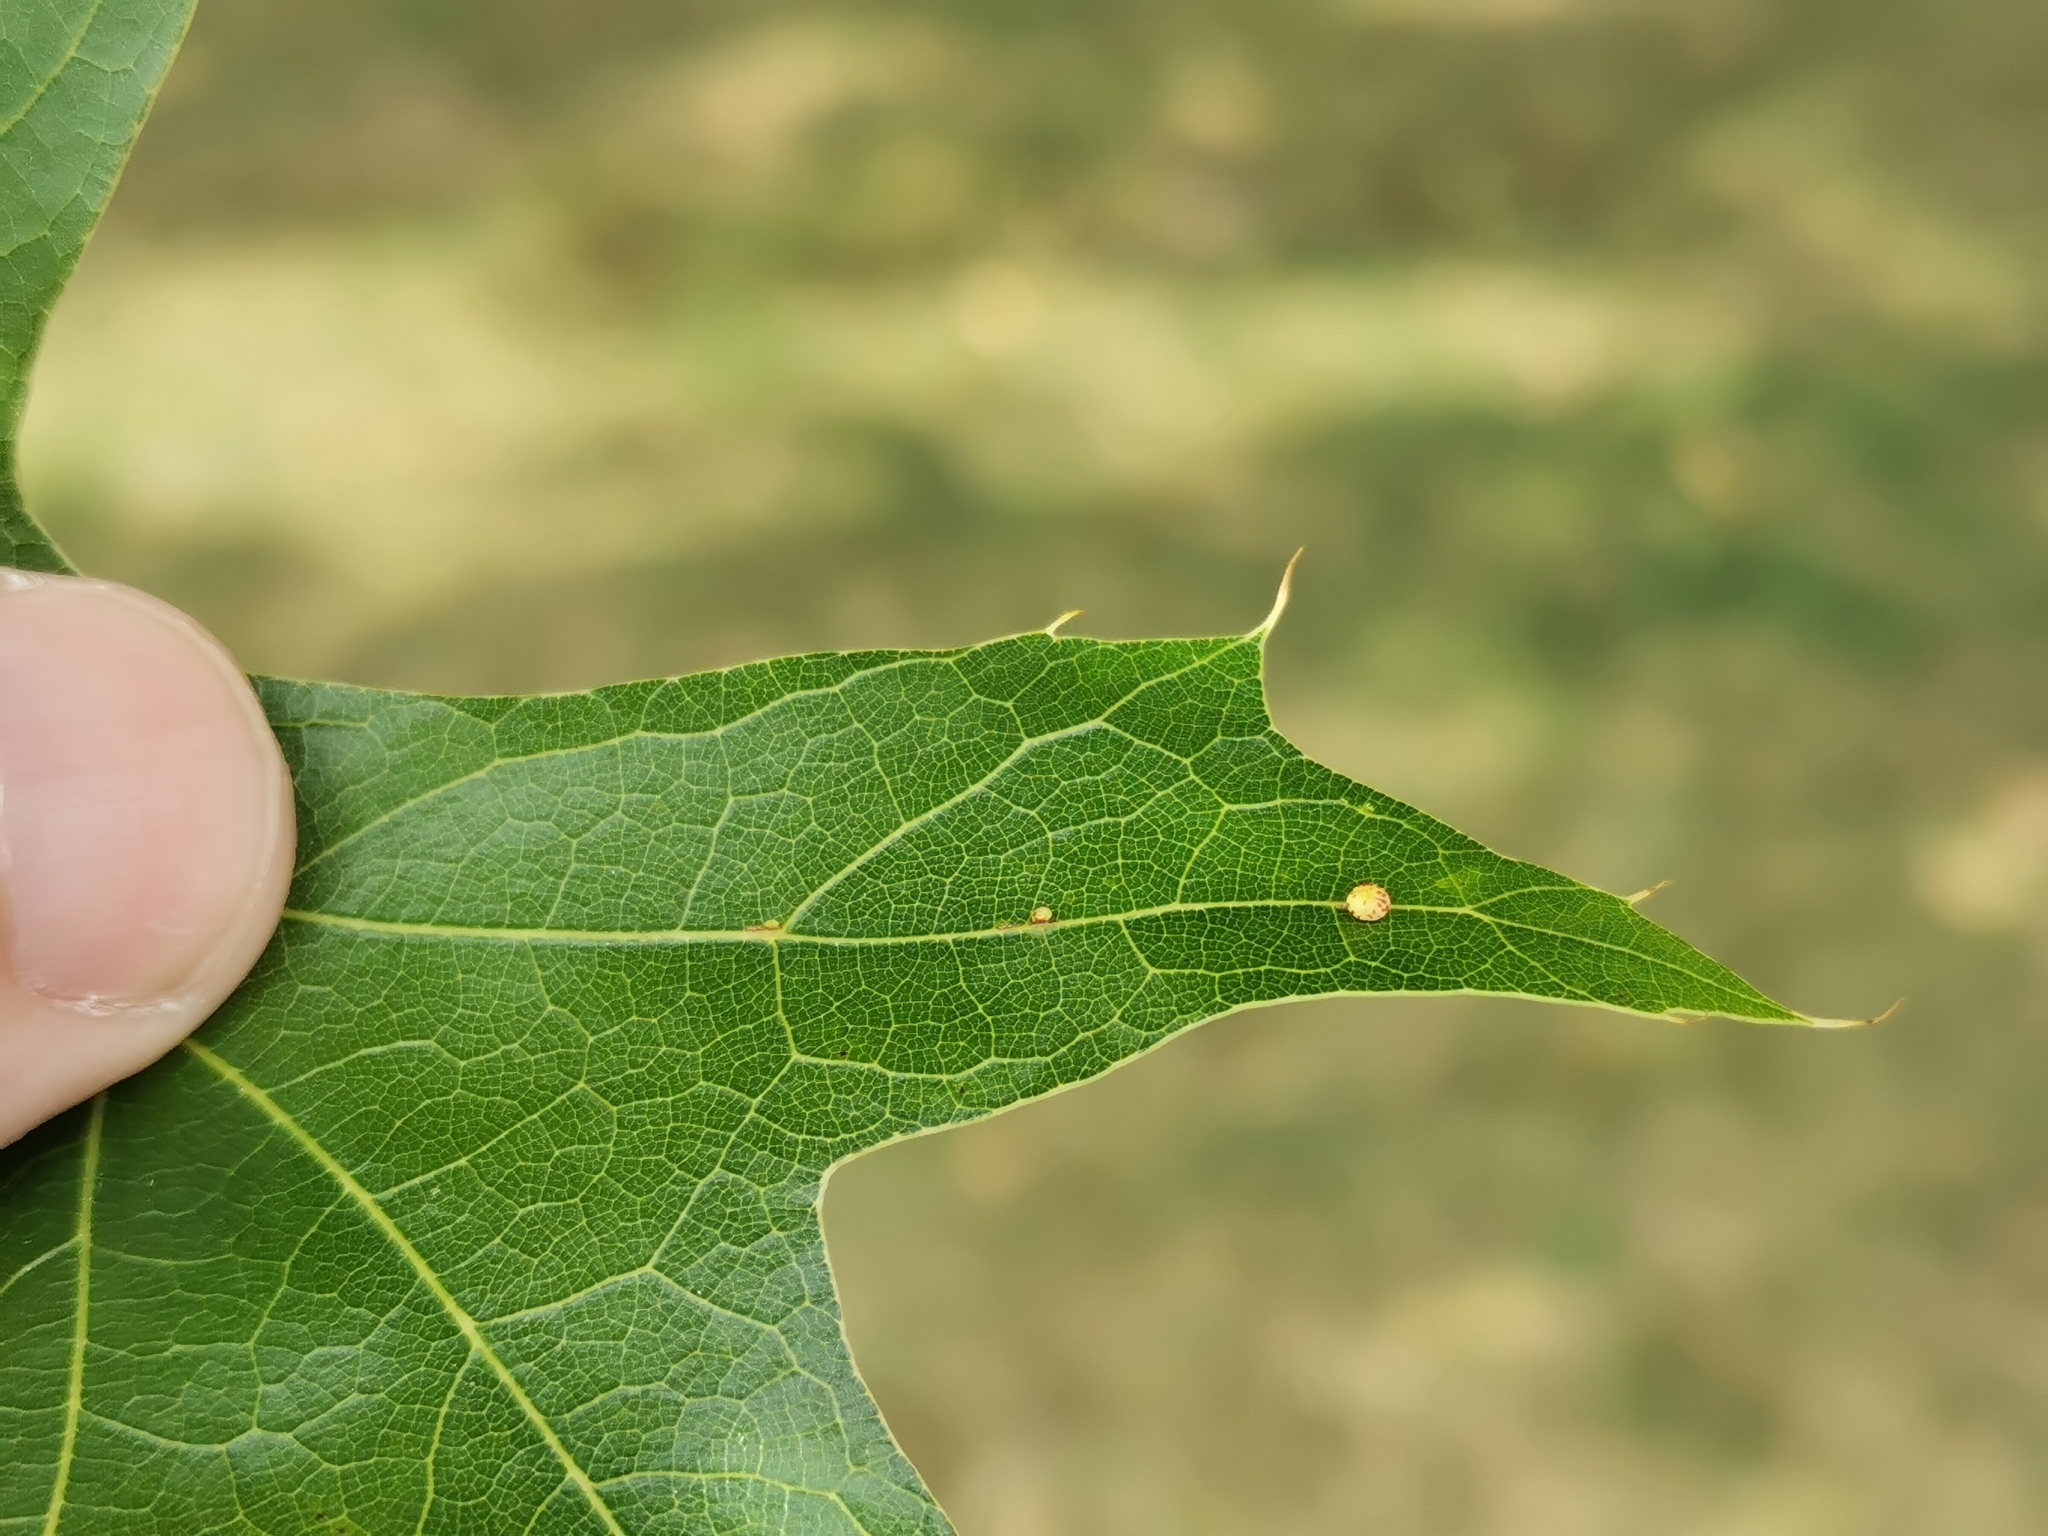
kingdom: Animalia
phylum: Arthropoda
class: Insecta
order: Hymenoptera
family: Cynipidae
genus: Zopheroteras
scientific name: Zopheroteras
